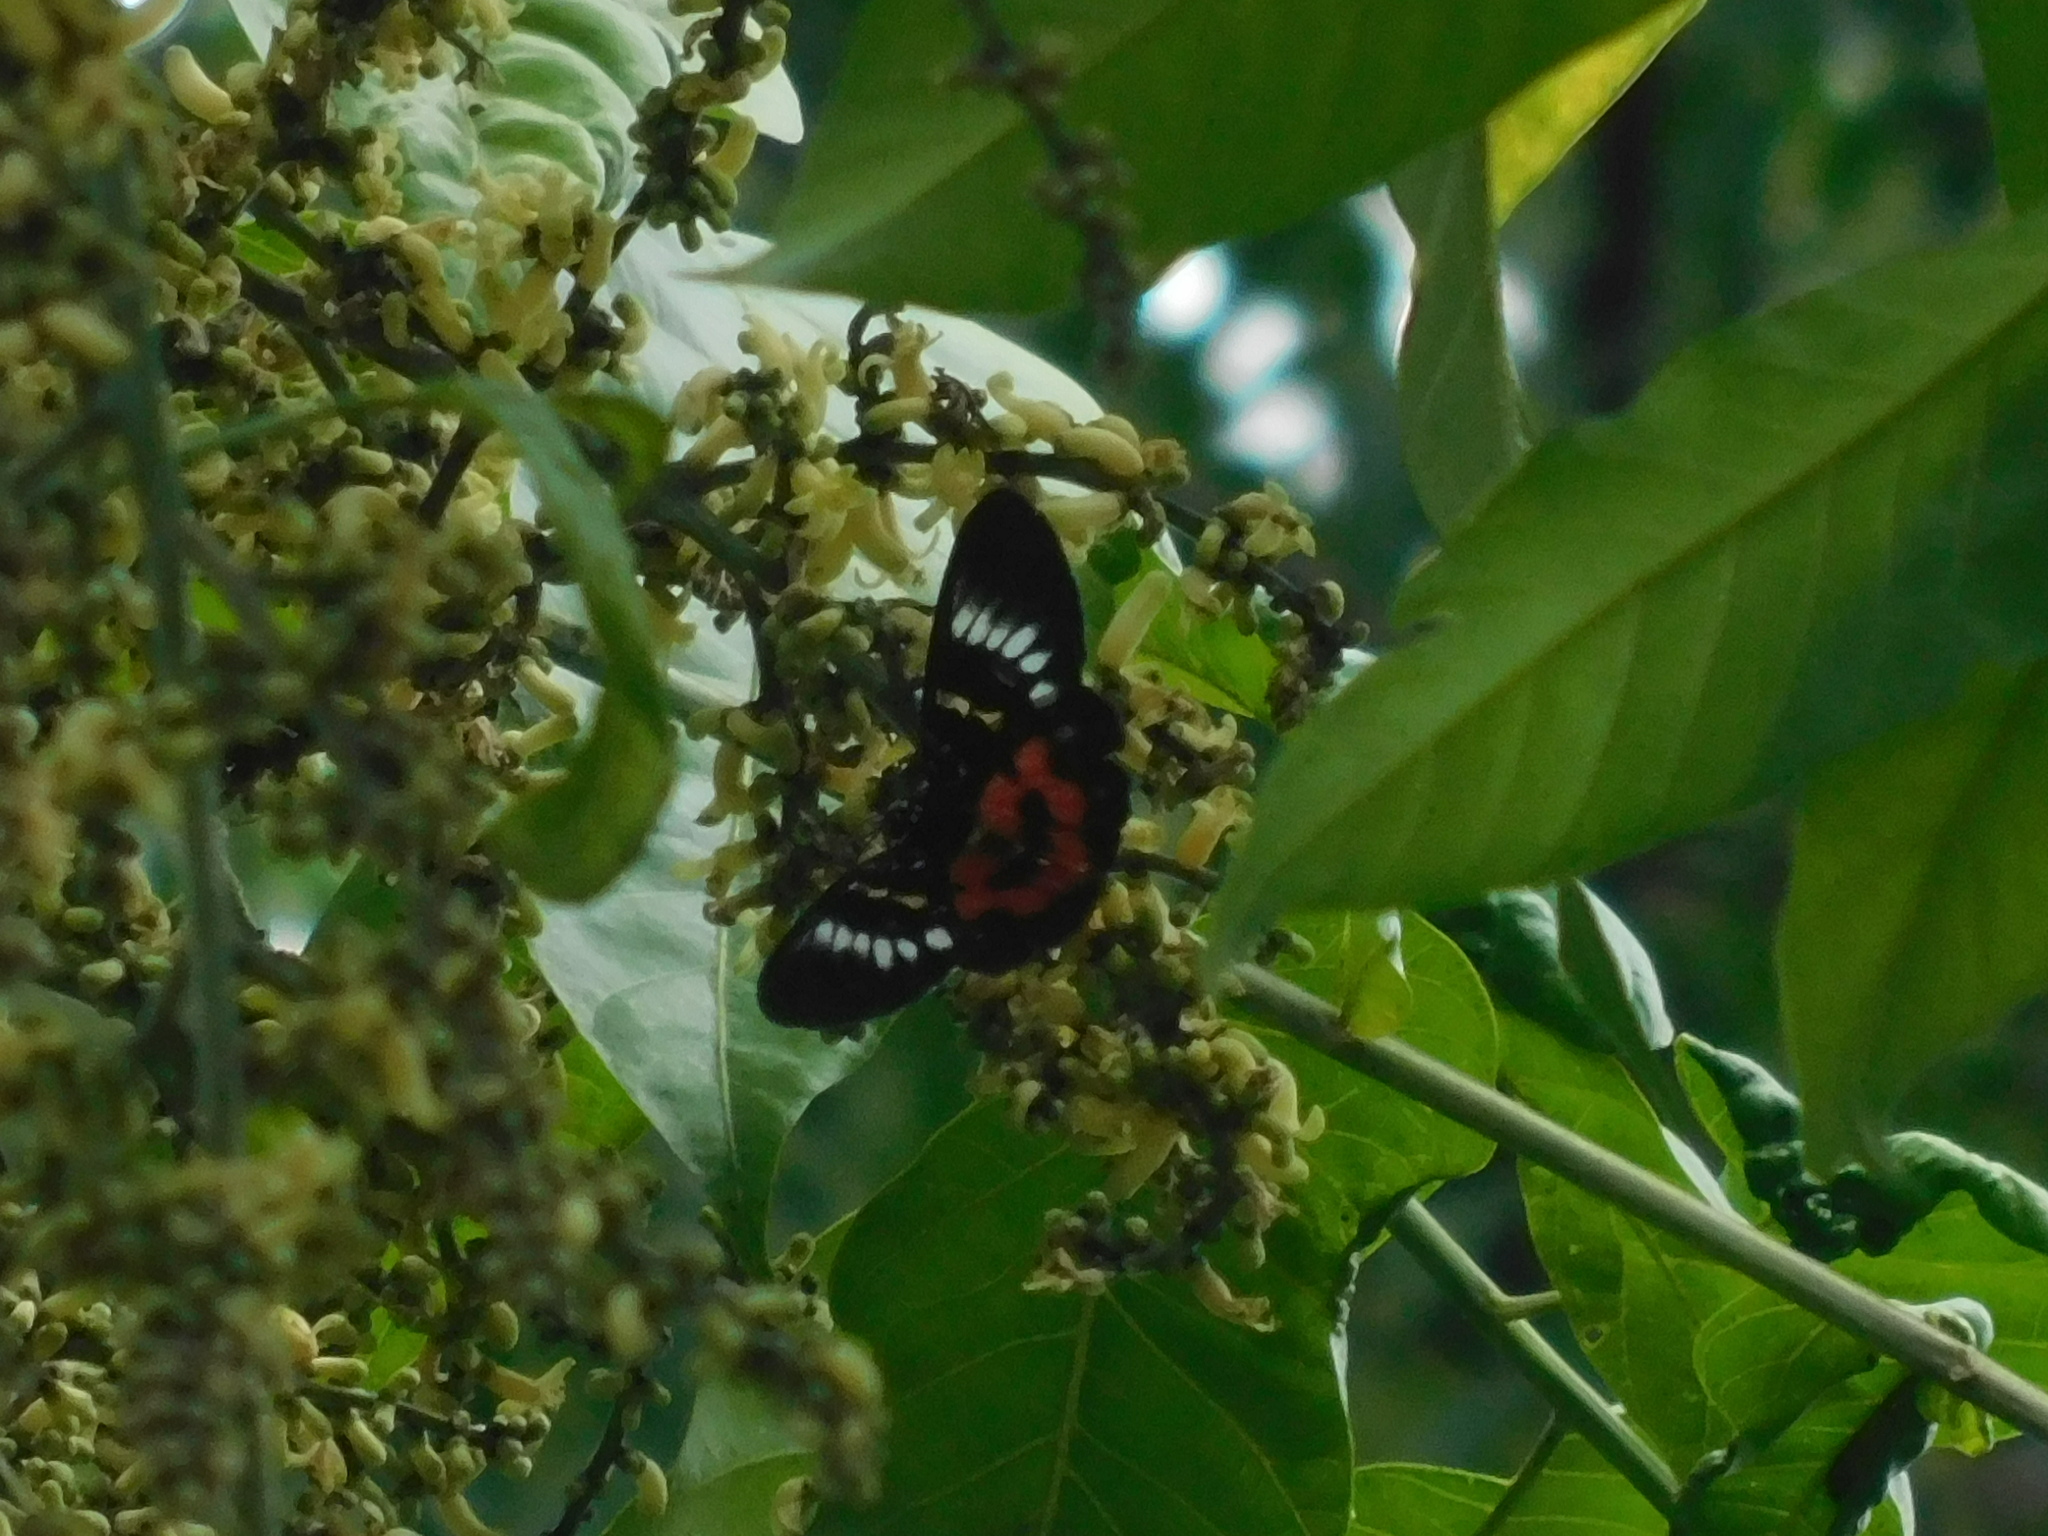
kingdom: Animalia
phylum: Arthropoda
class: Insecta
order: Lepidoptera
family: Noctuidae
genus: Episteme
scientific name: Episteme bisma
